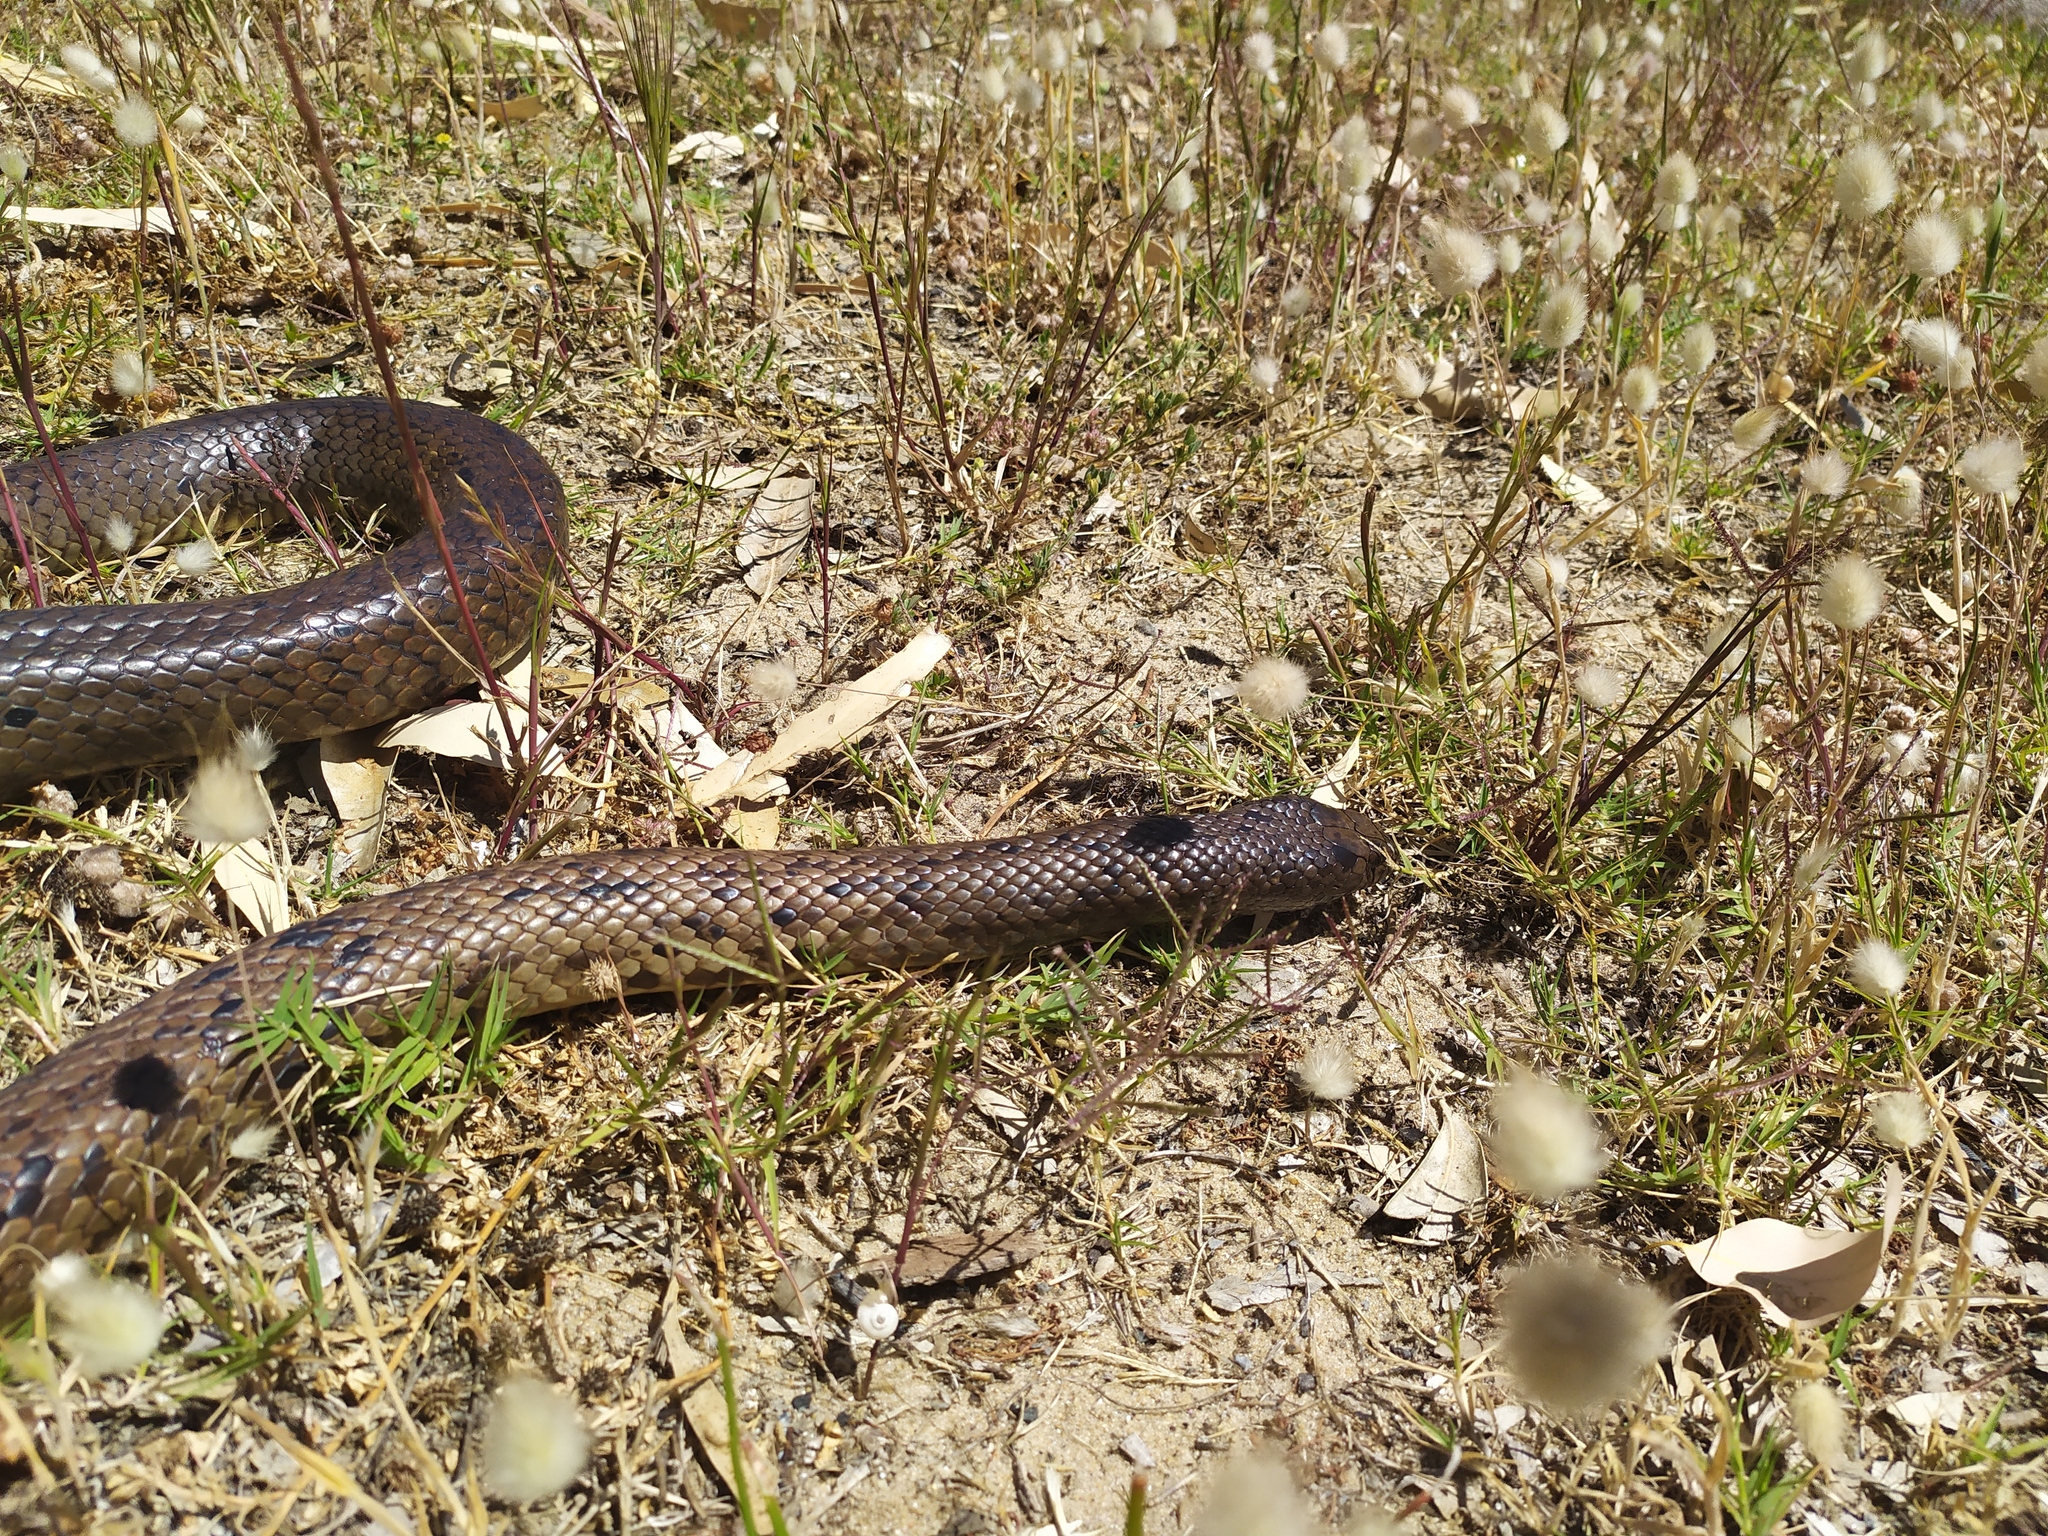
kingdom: Animalia
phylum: Chordata
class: Squamata
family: Elapidae
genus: Pseudonaja
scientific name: Pseudonaja affinis
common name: Dugite
